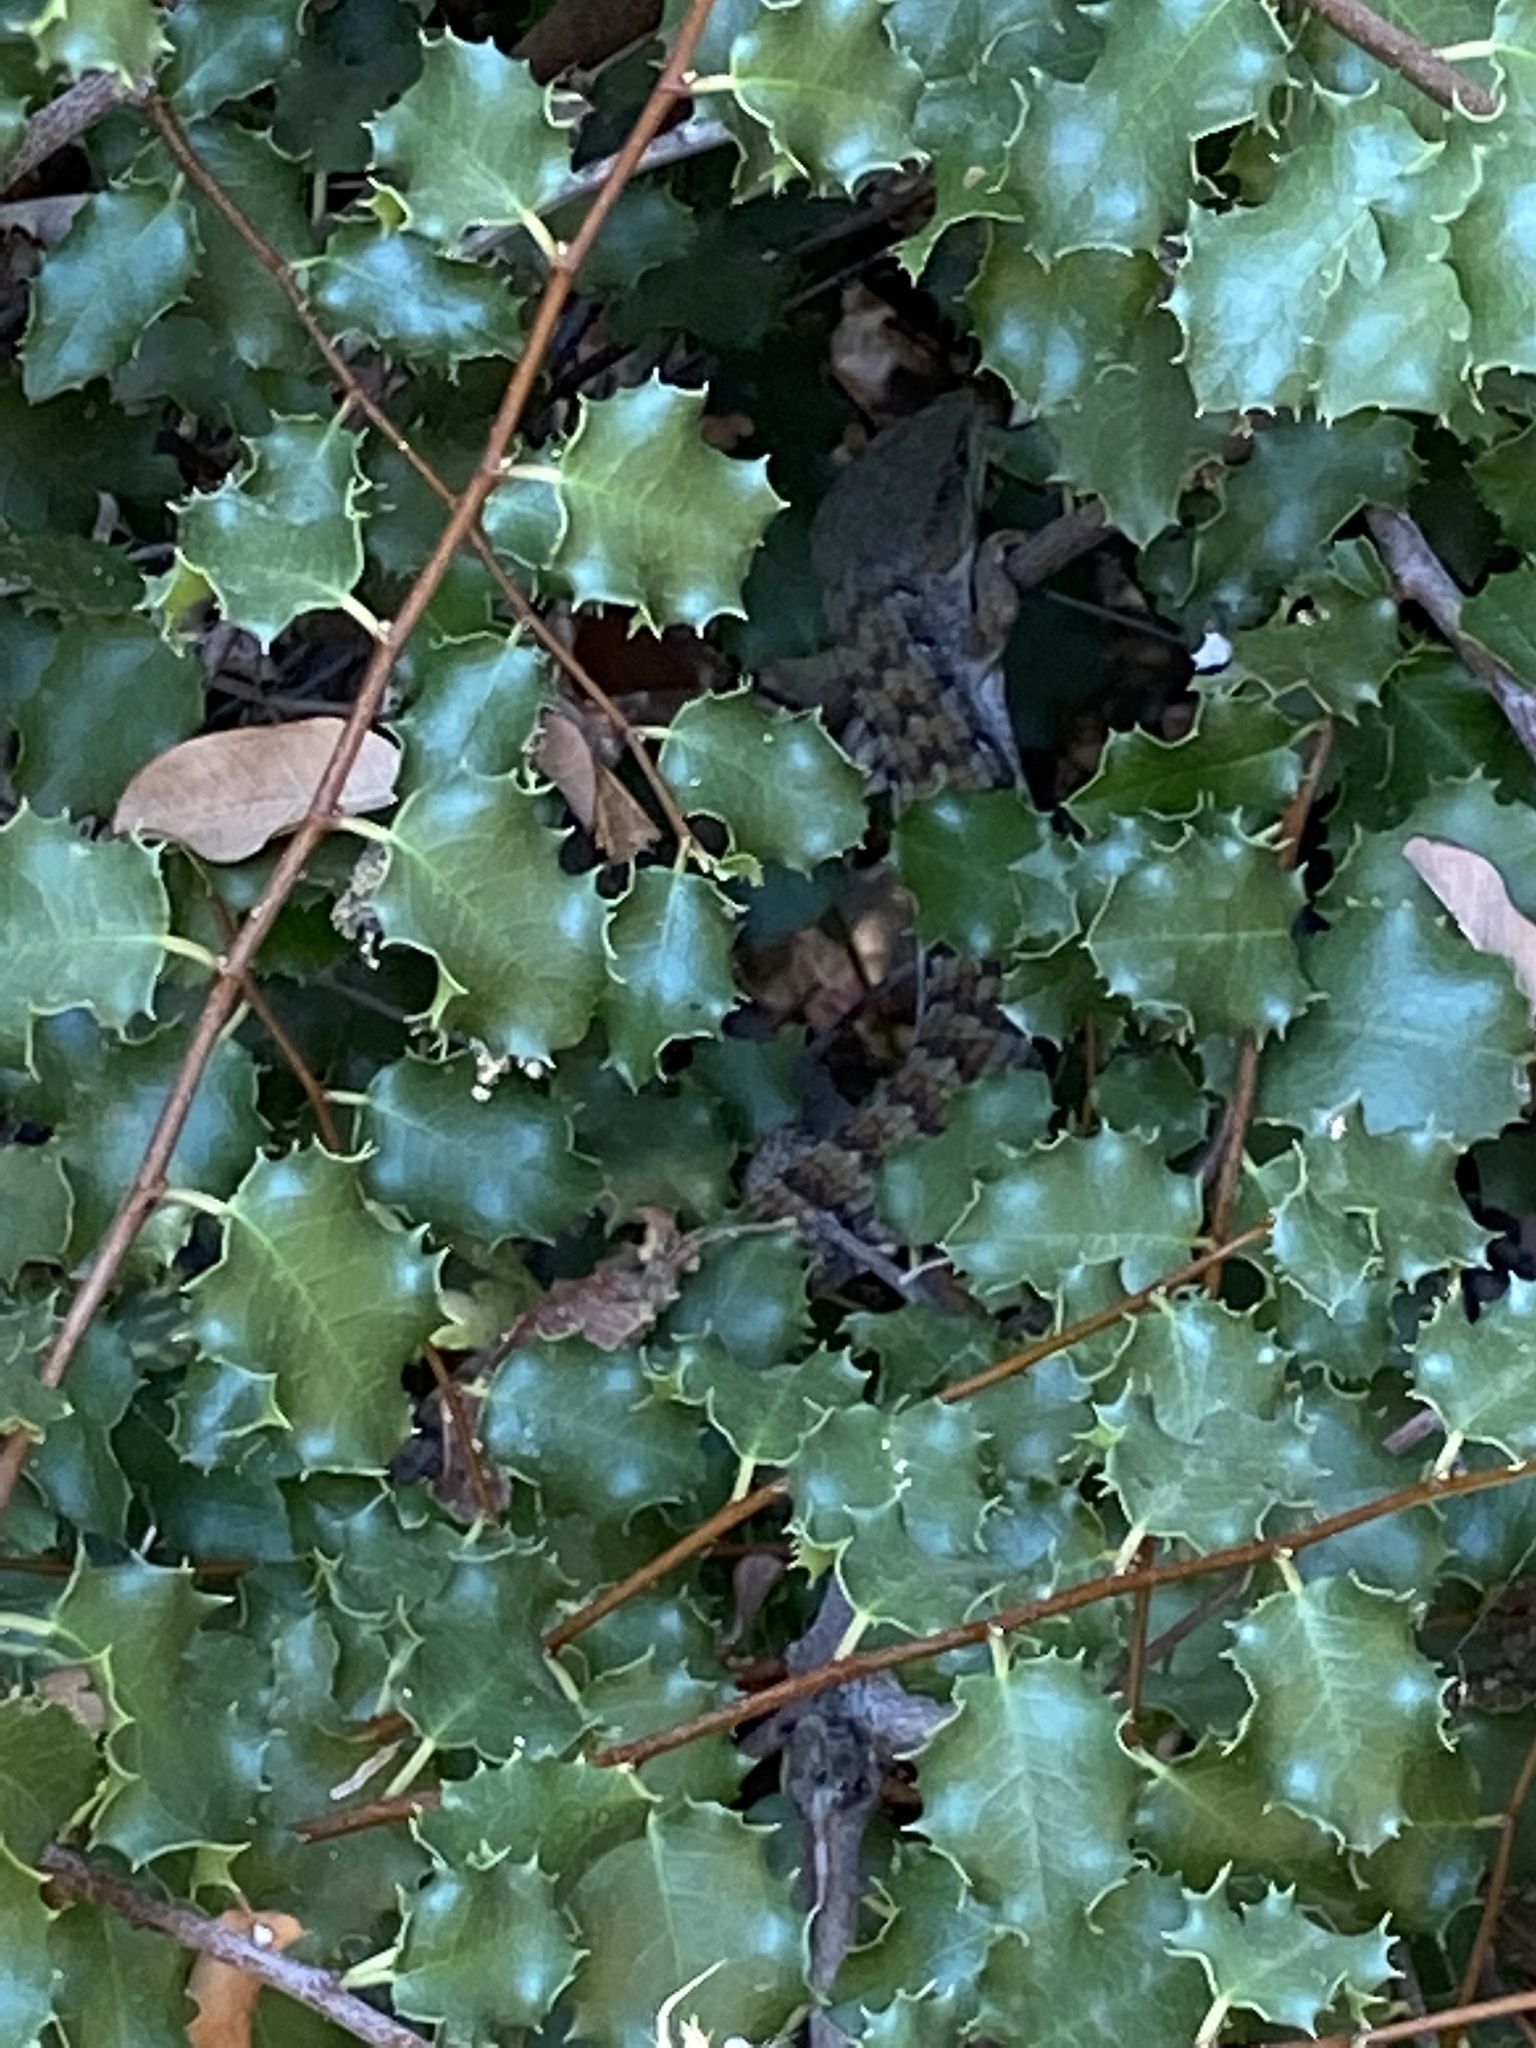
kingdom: Animalia
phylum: Chordata
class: Squamata
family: Anguidae
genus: Elgaria
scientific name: Elgaria multicarinata
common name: Southern alligator lizard
